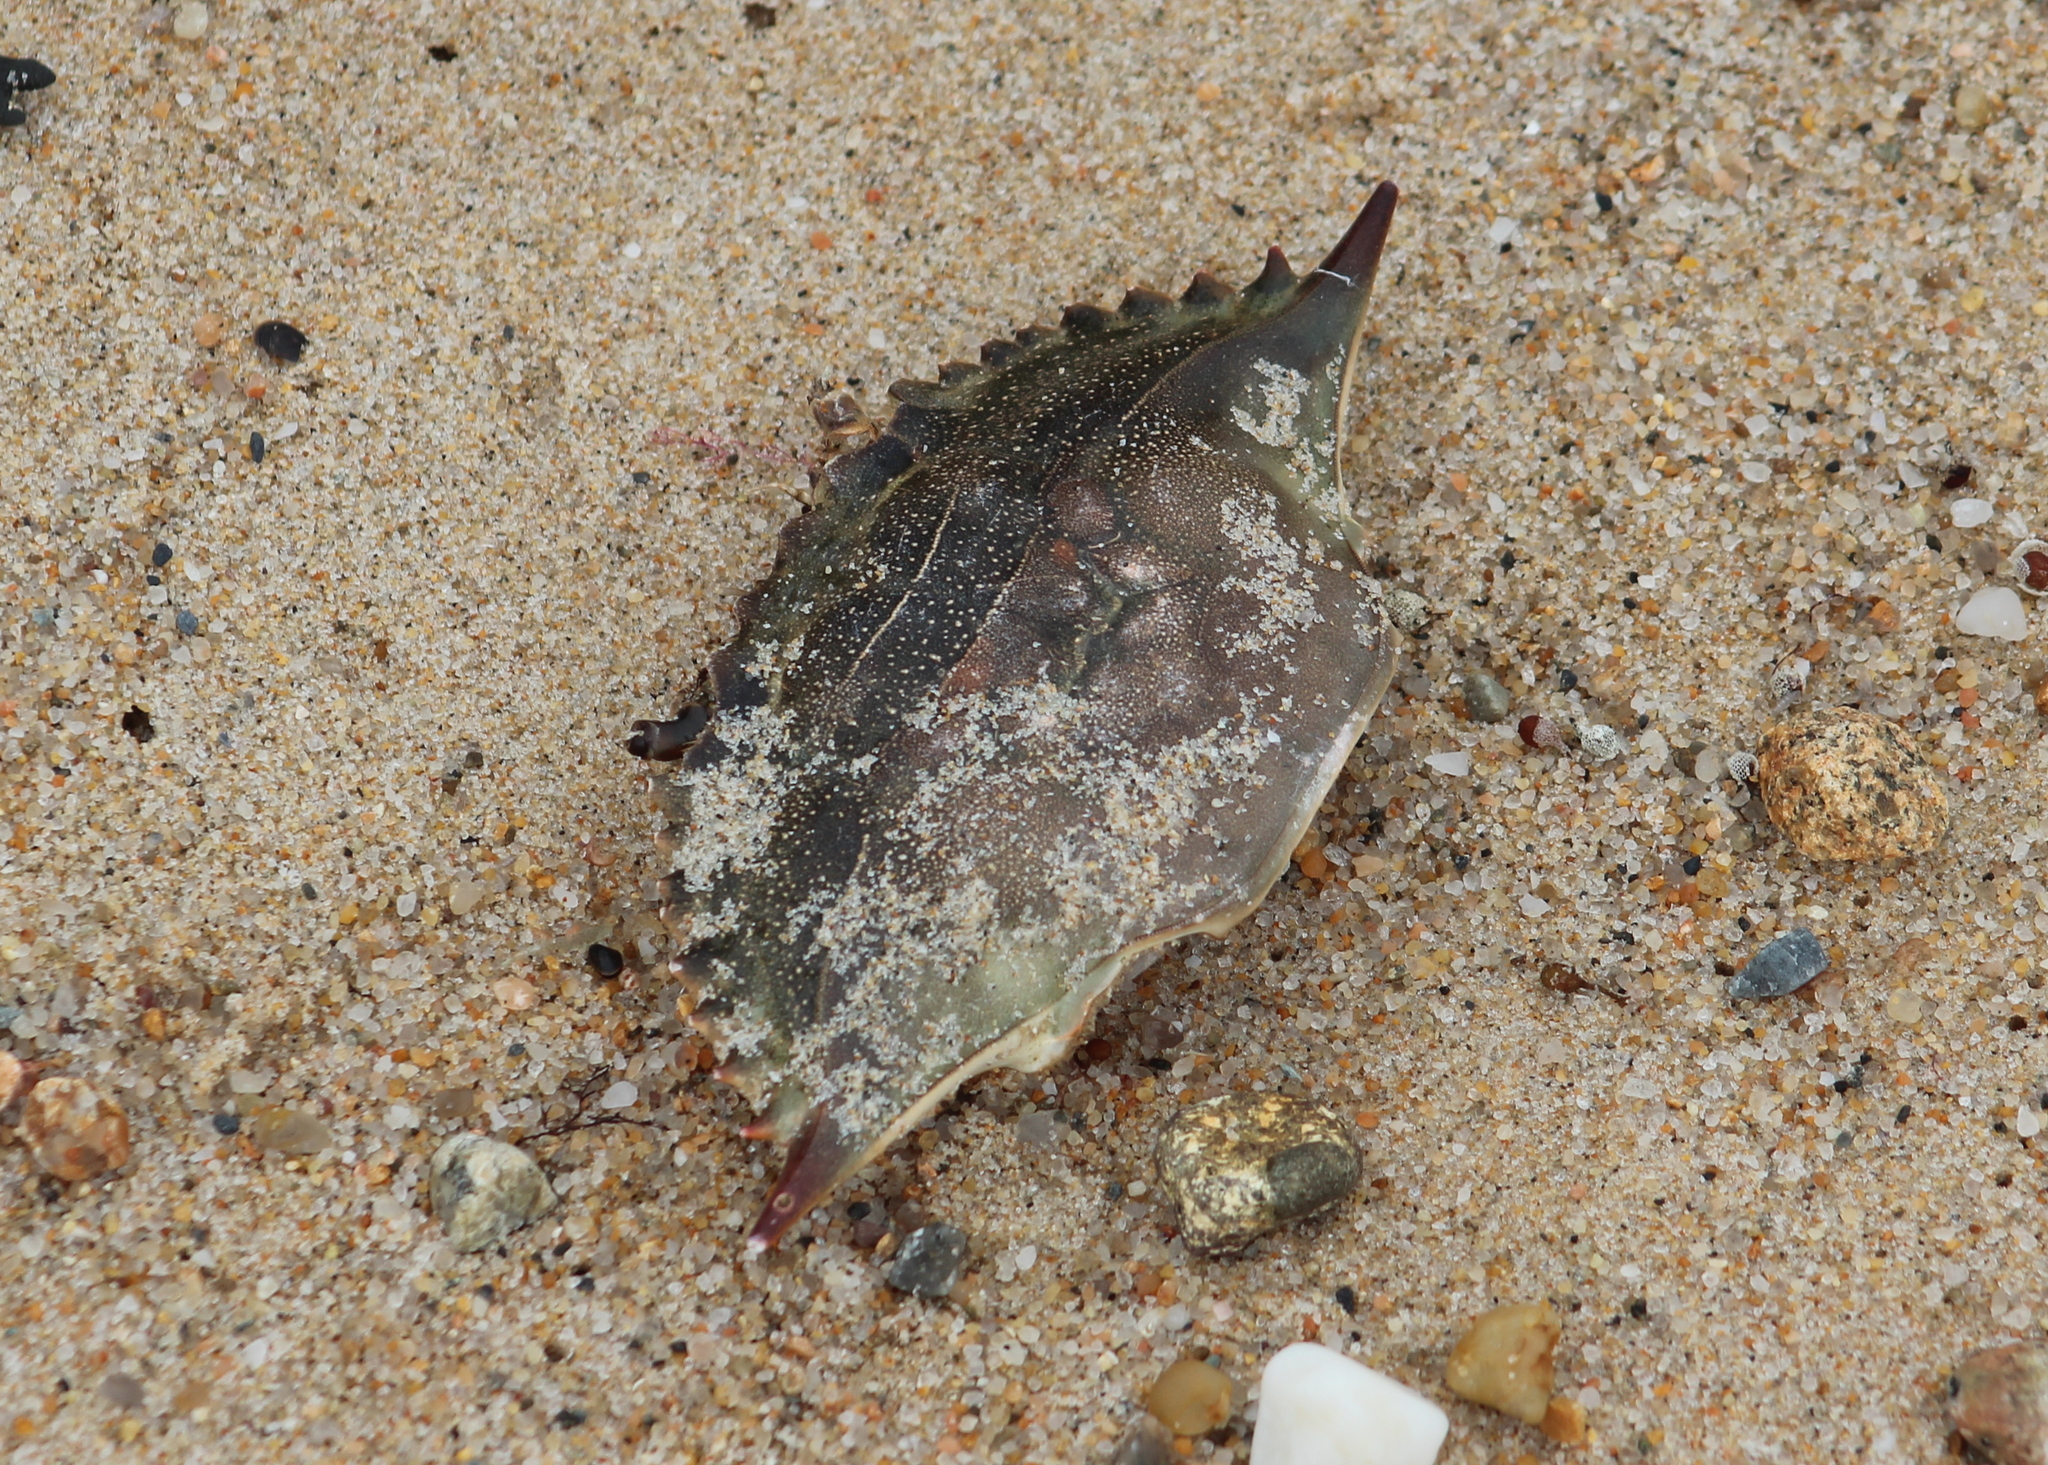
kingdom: Animalia
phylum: Arthropoda
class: Malacostraca
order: Decapoda
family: Portunidae
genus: Callinectes
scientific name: Callinectes sapidus
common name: Blue crab
